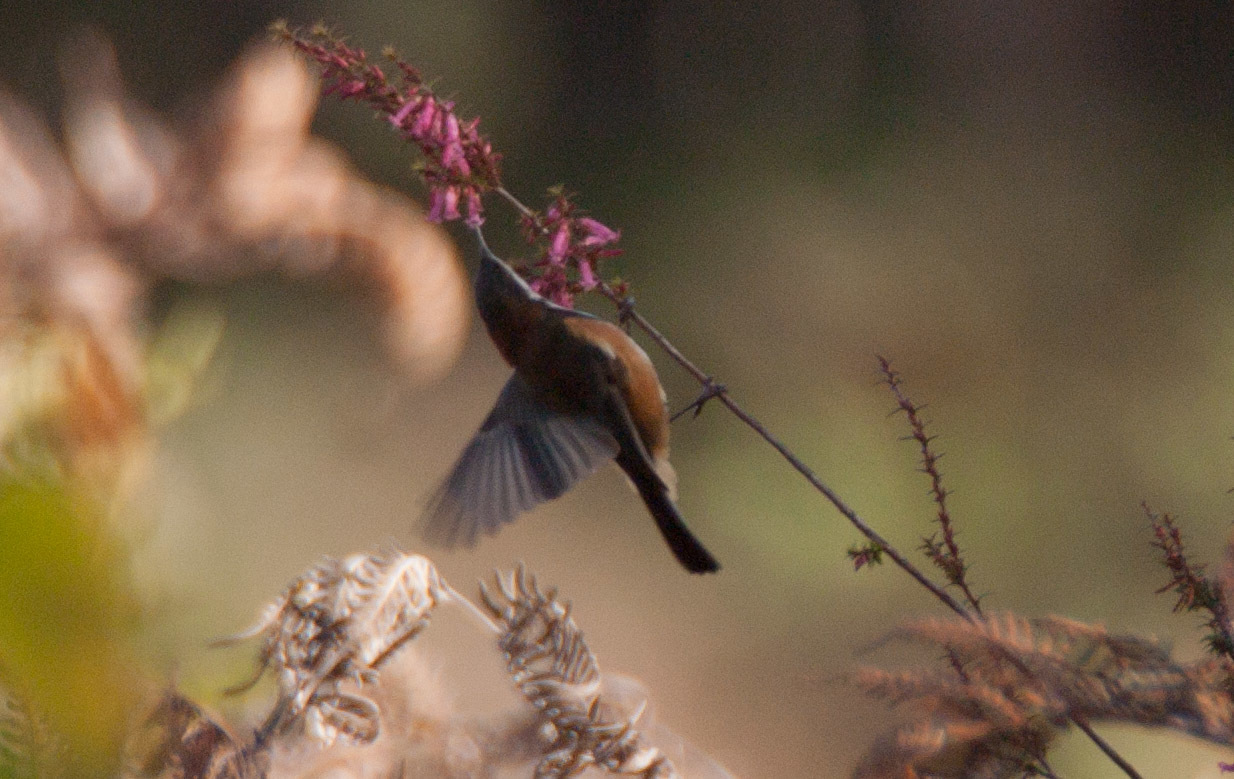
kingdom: Animalia
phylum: Chordata
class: Aves
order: Passeriformes
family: Meliphagidae
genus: Acanthorhynchus
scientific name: Acanthorhynchus tenuirostris
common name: Eastern spinebill
